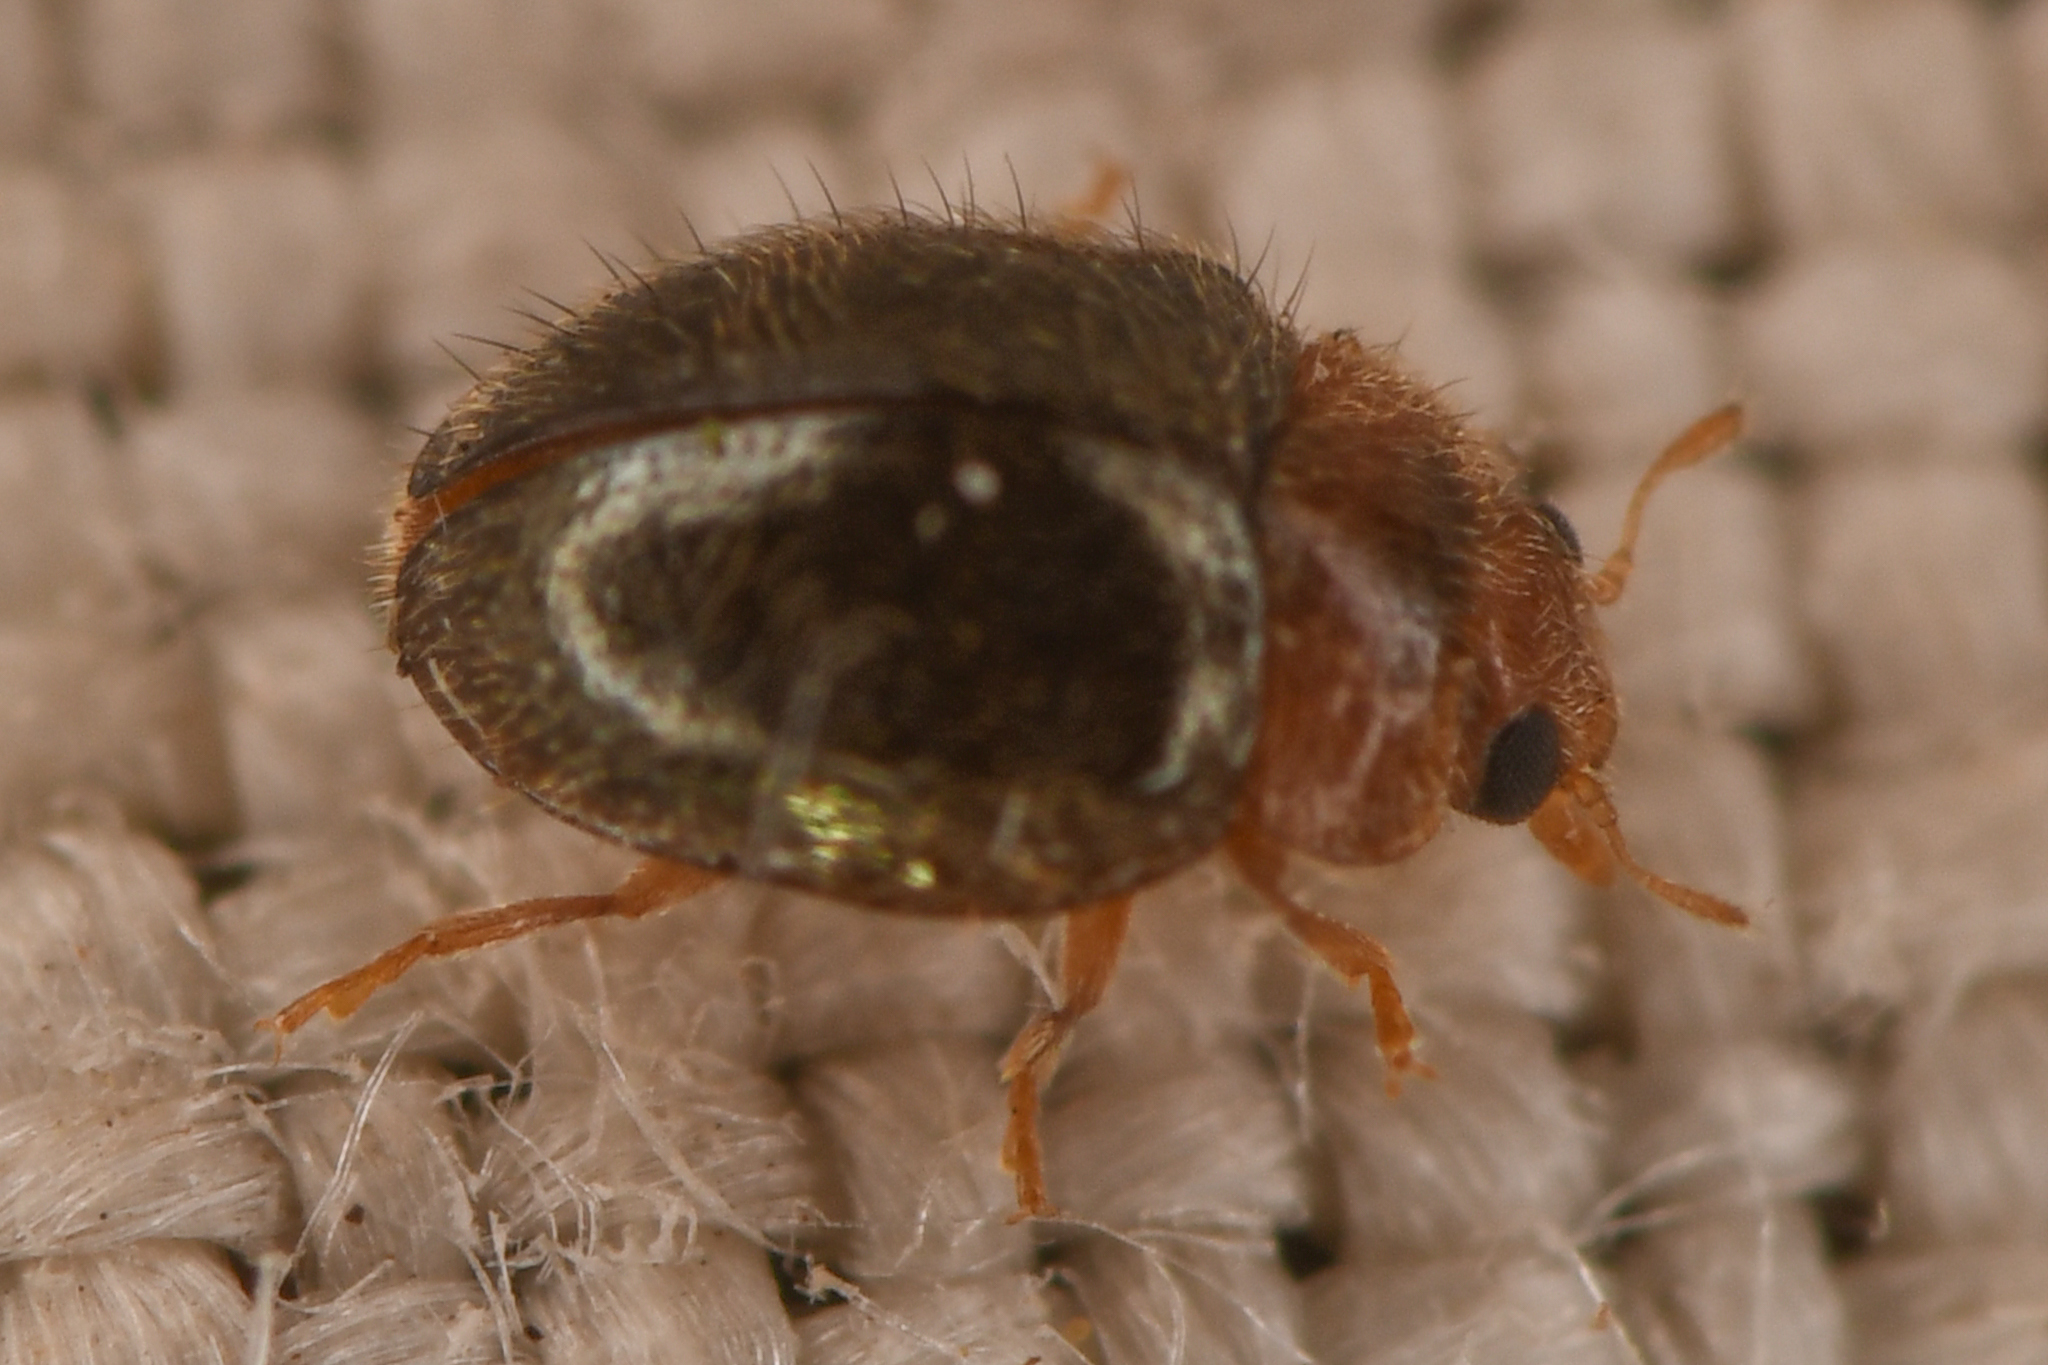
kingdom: Animalia
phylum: Arthropoda
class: Insecta
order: Coleoptera
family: Coccinellidae
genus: Rhyzobius
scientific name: Rhyzobius lophanthae
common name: Scale-eating ladybird beetle
